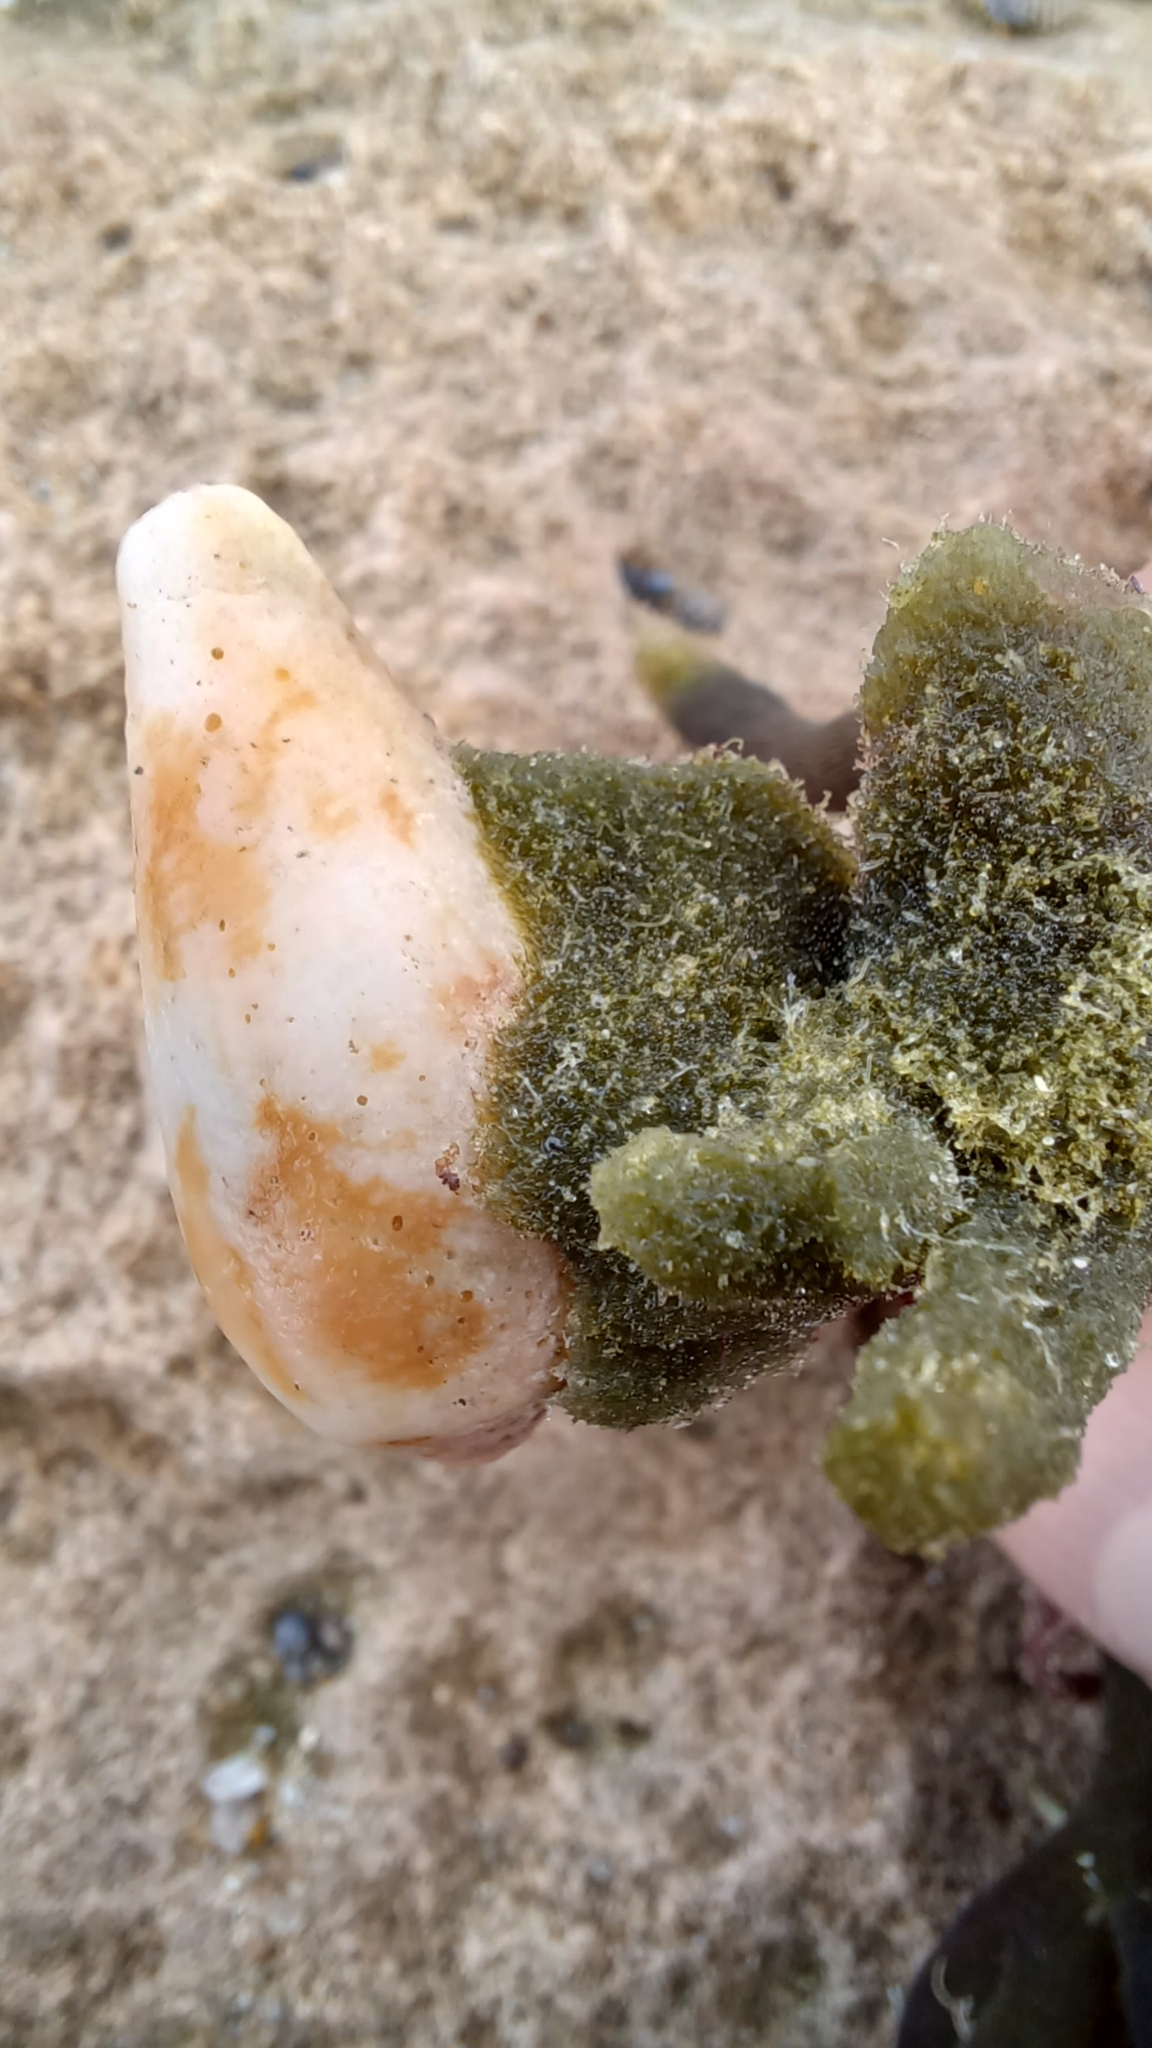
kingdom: Animalia
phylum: Mollusca
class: Gastropoda
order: Neogastropoda
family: Conidae
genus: Conus
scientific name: Conus anemone
